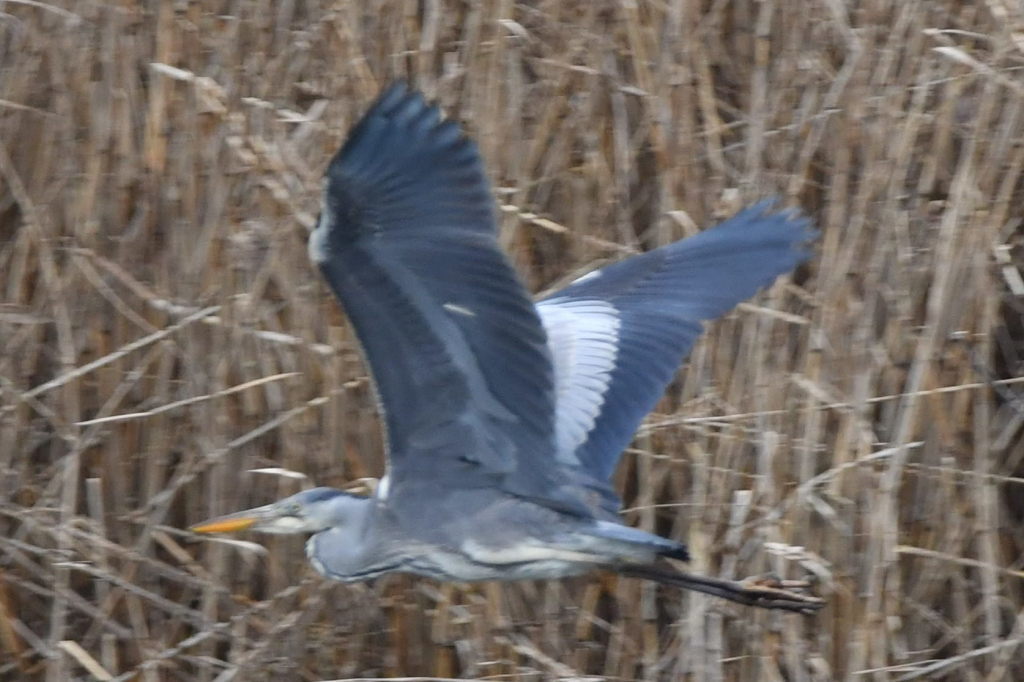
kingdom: Animalia
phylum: Chordata
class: Aves
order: Pelecaniformes
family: Ardeidae
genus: Ardea
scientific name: Ardea cinerea
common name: Grey heron
